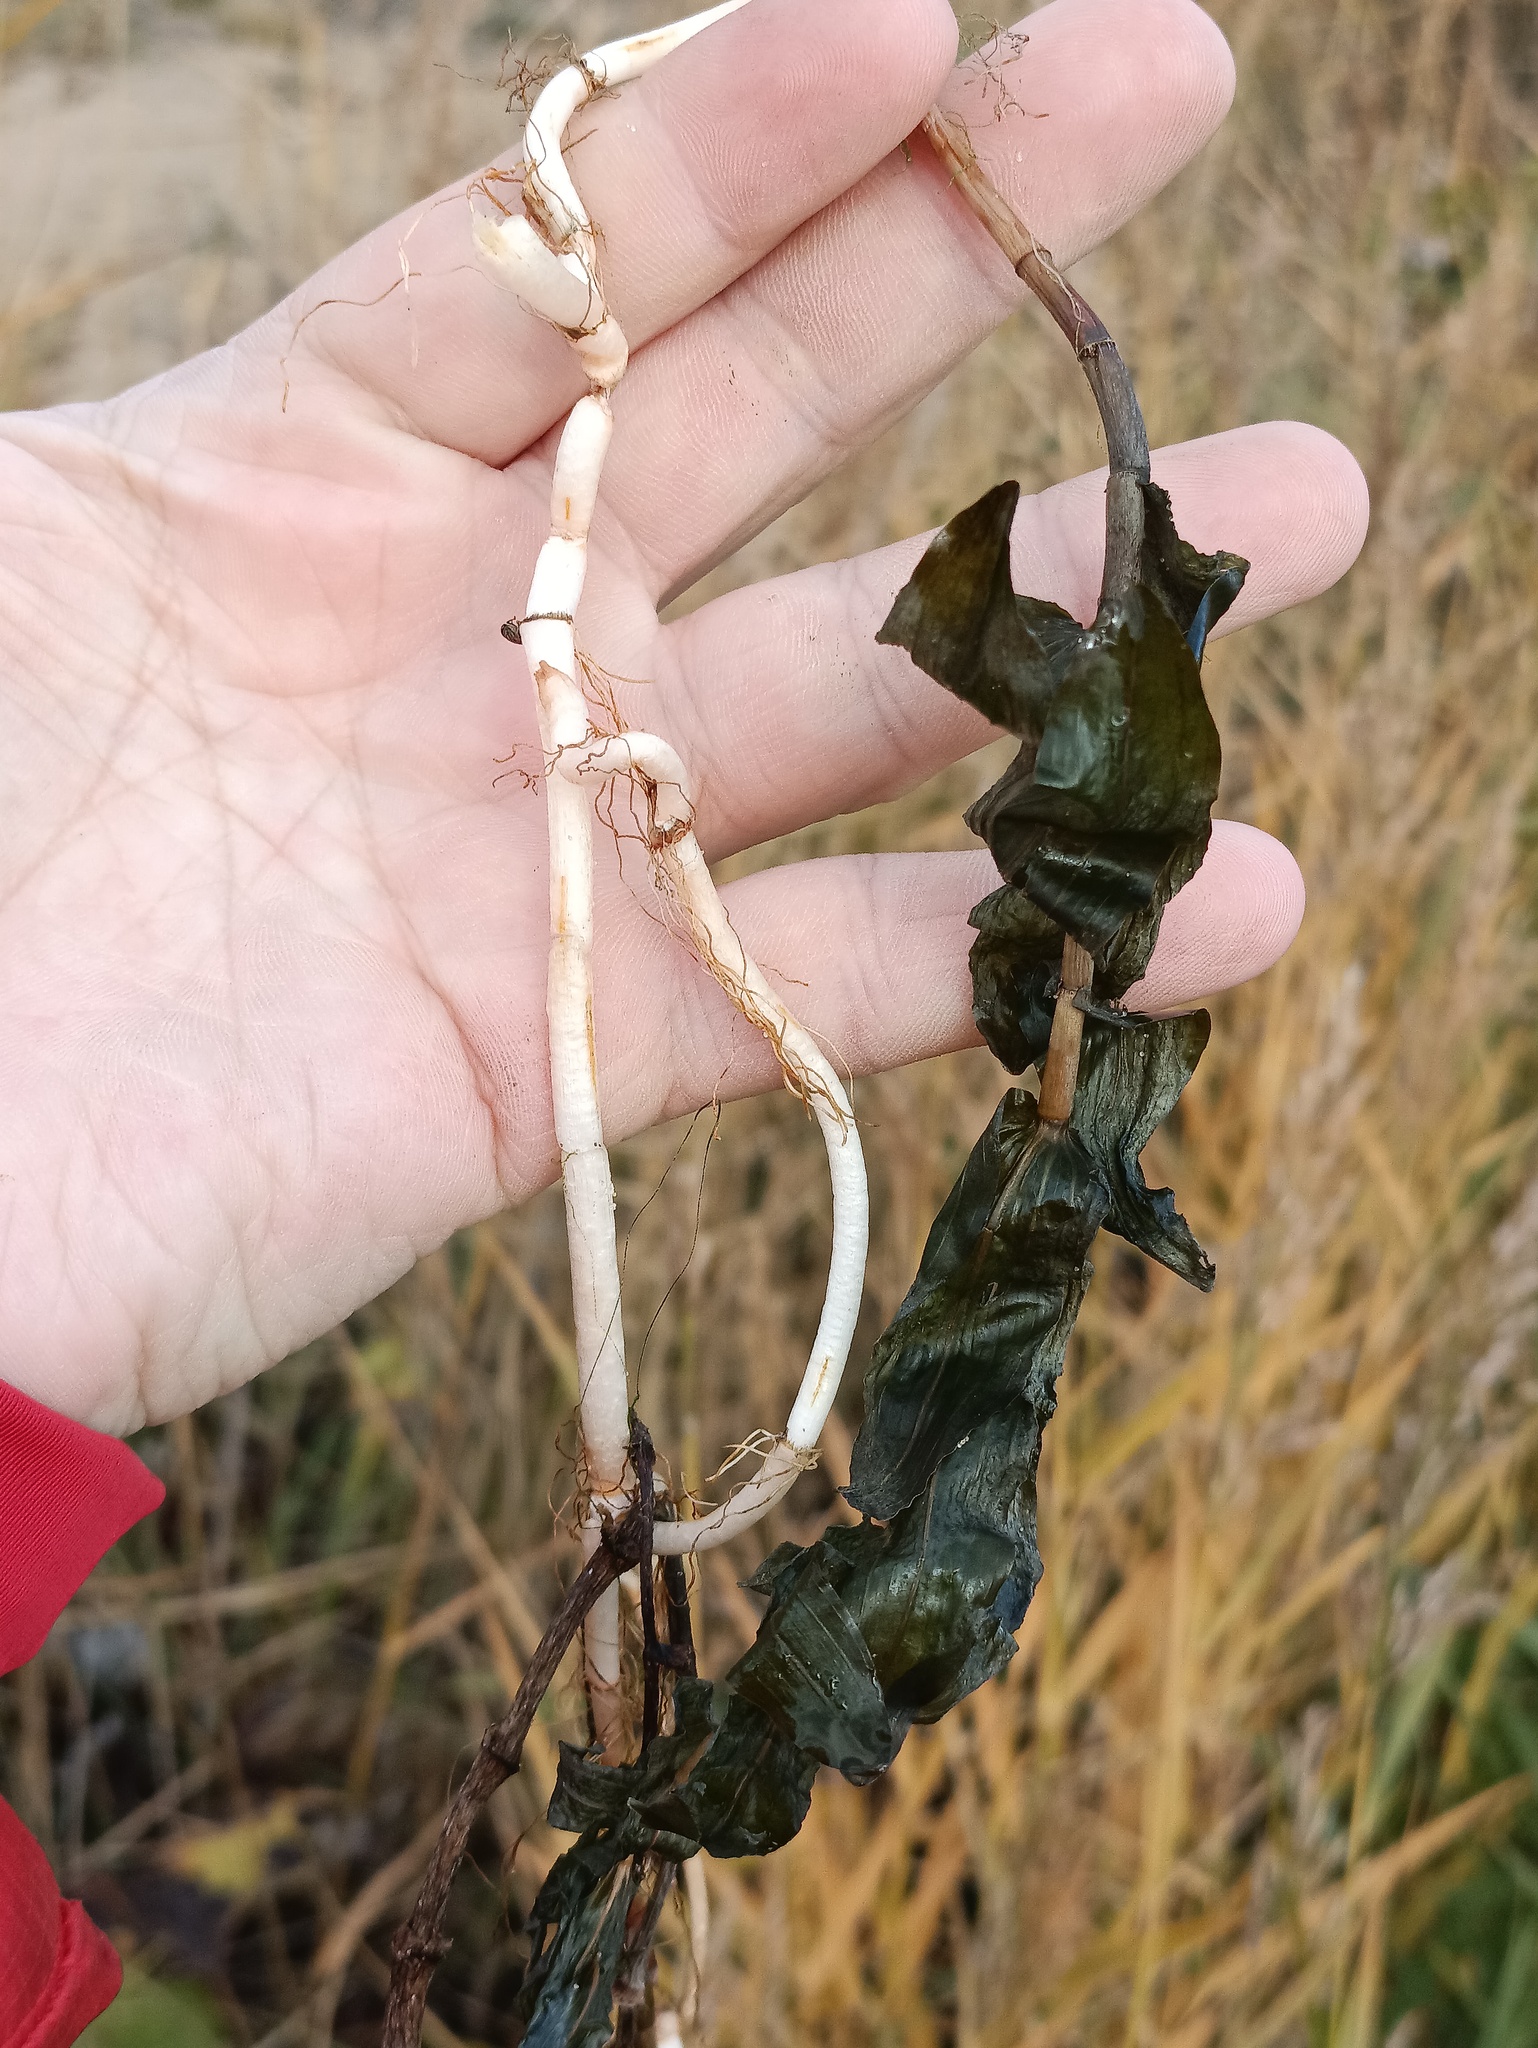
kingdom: Plantae
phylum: Tracheophyta
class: Liliopsida
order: Alismatales
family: Potamogetonaceae
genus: Potamogeton
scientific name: Potamogeton perfoliatus
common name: Perfoliate pondweed
